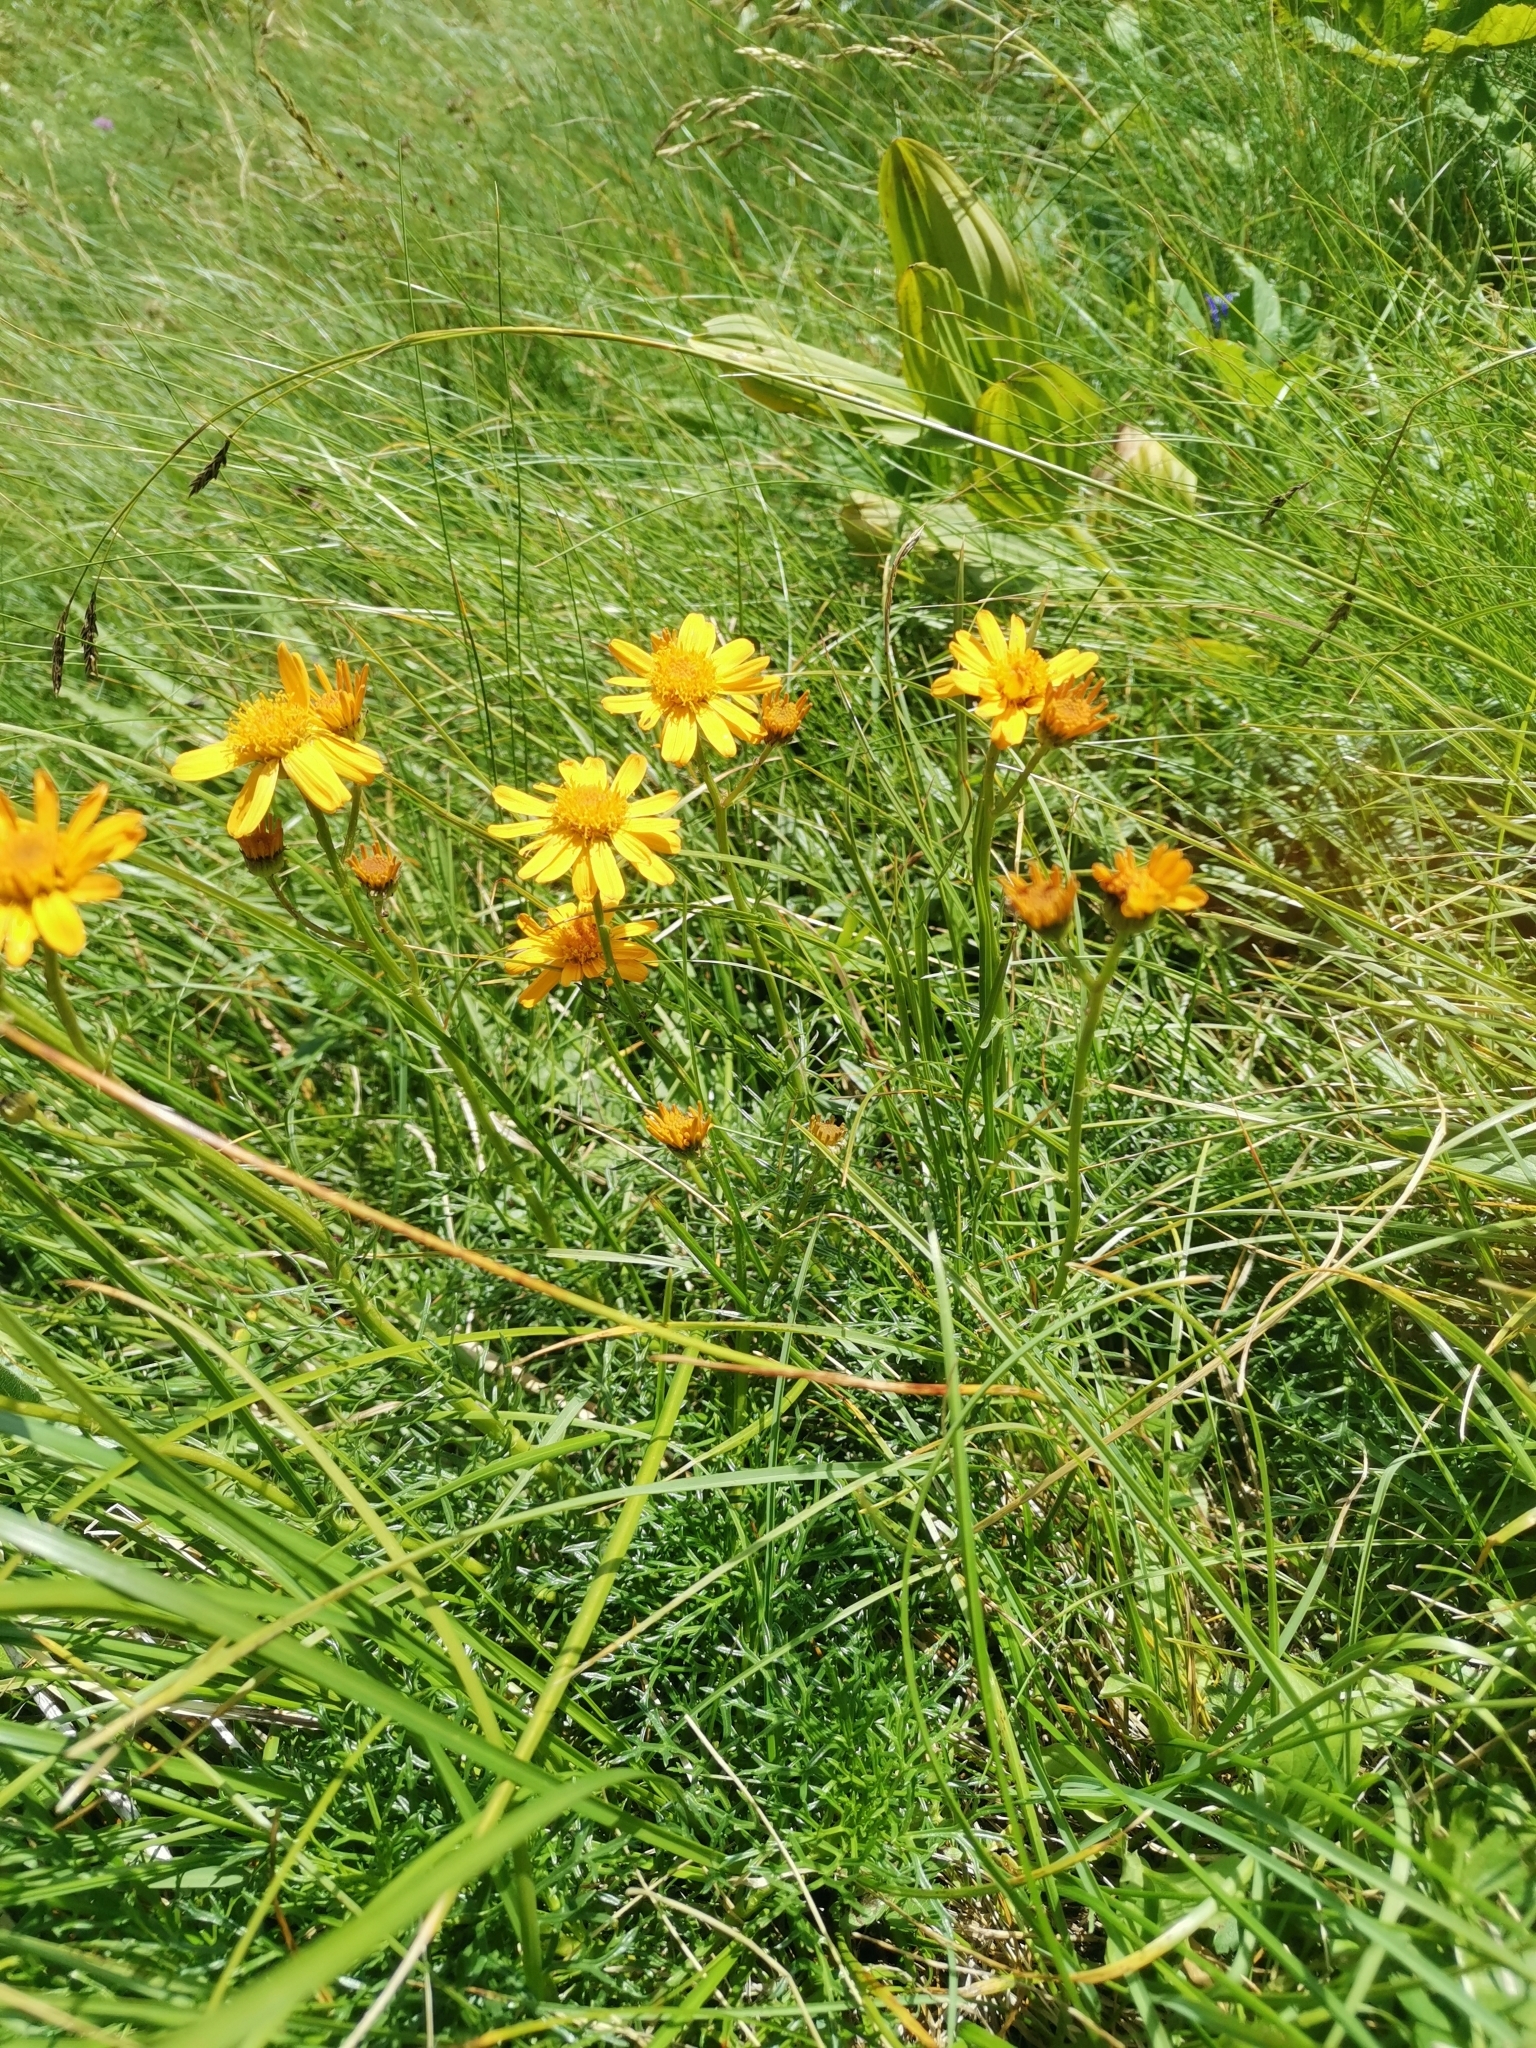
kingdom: Plantae
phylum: Tracheophyta
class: Magnoliopsida
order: Asterales
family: Asteraceae
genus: Jacobaea
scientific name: Jacobaea abrotanifolia
